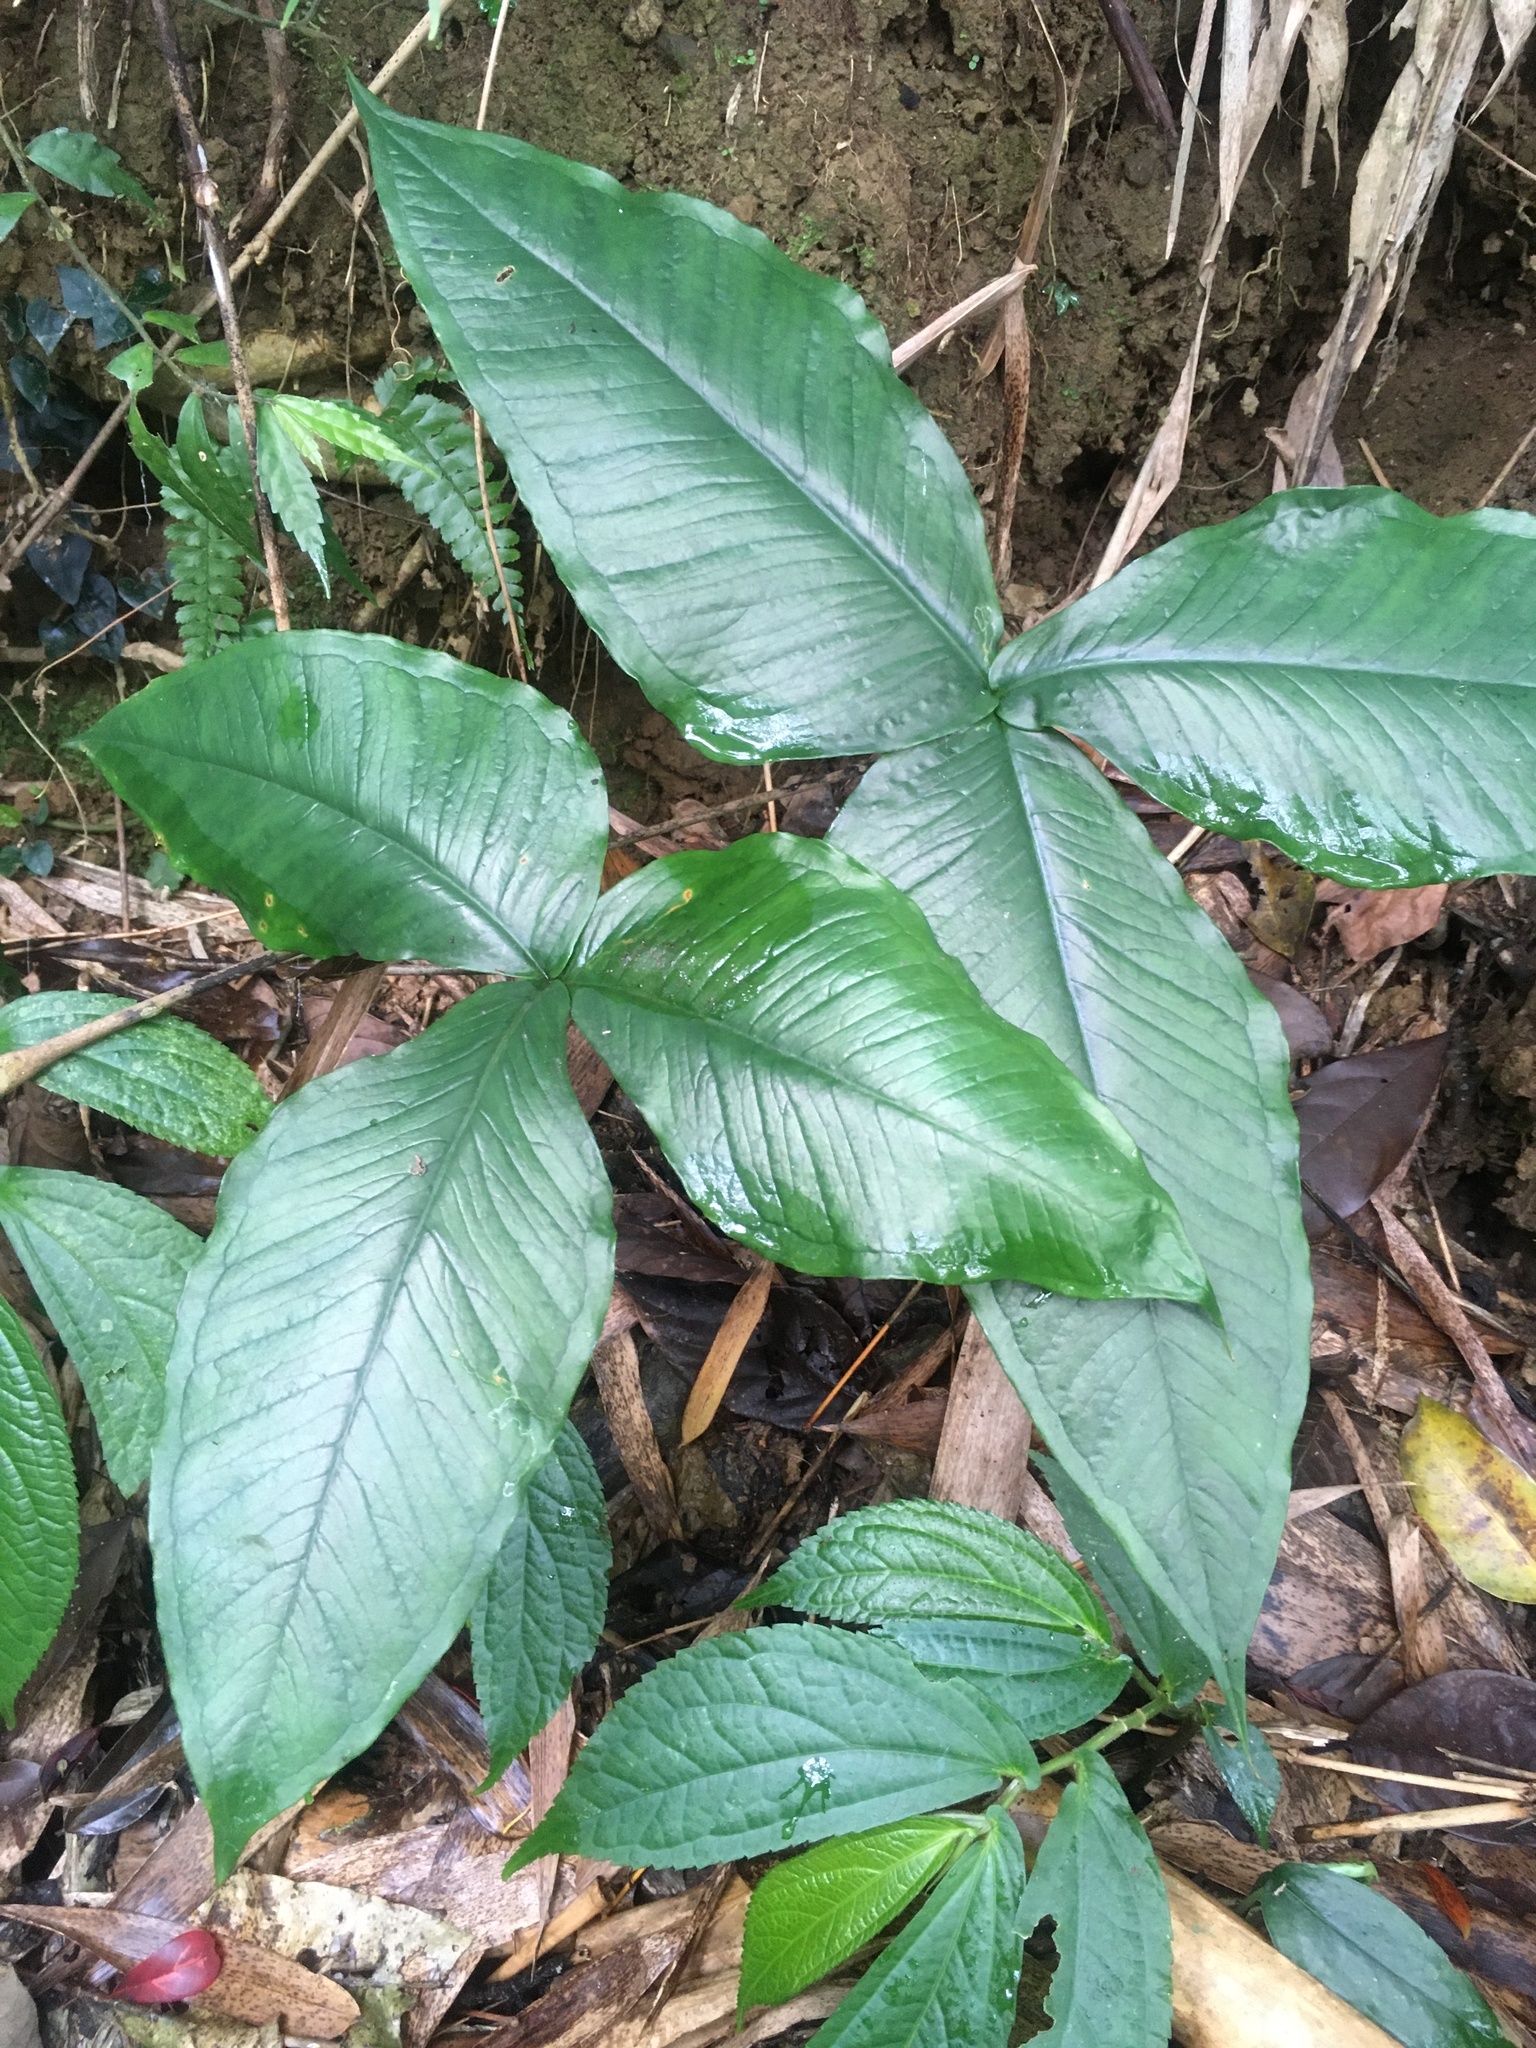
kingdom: Plantae
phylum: Tracheophyta
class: Liliopsida
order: Alismatales
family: Araceae
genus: Arisaema
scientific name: Arisaema ringens
